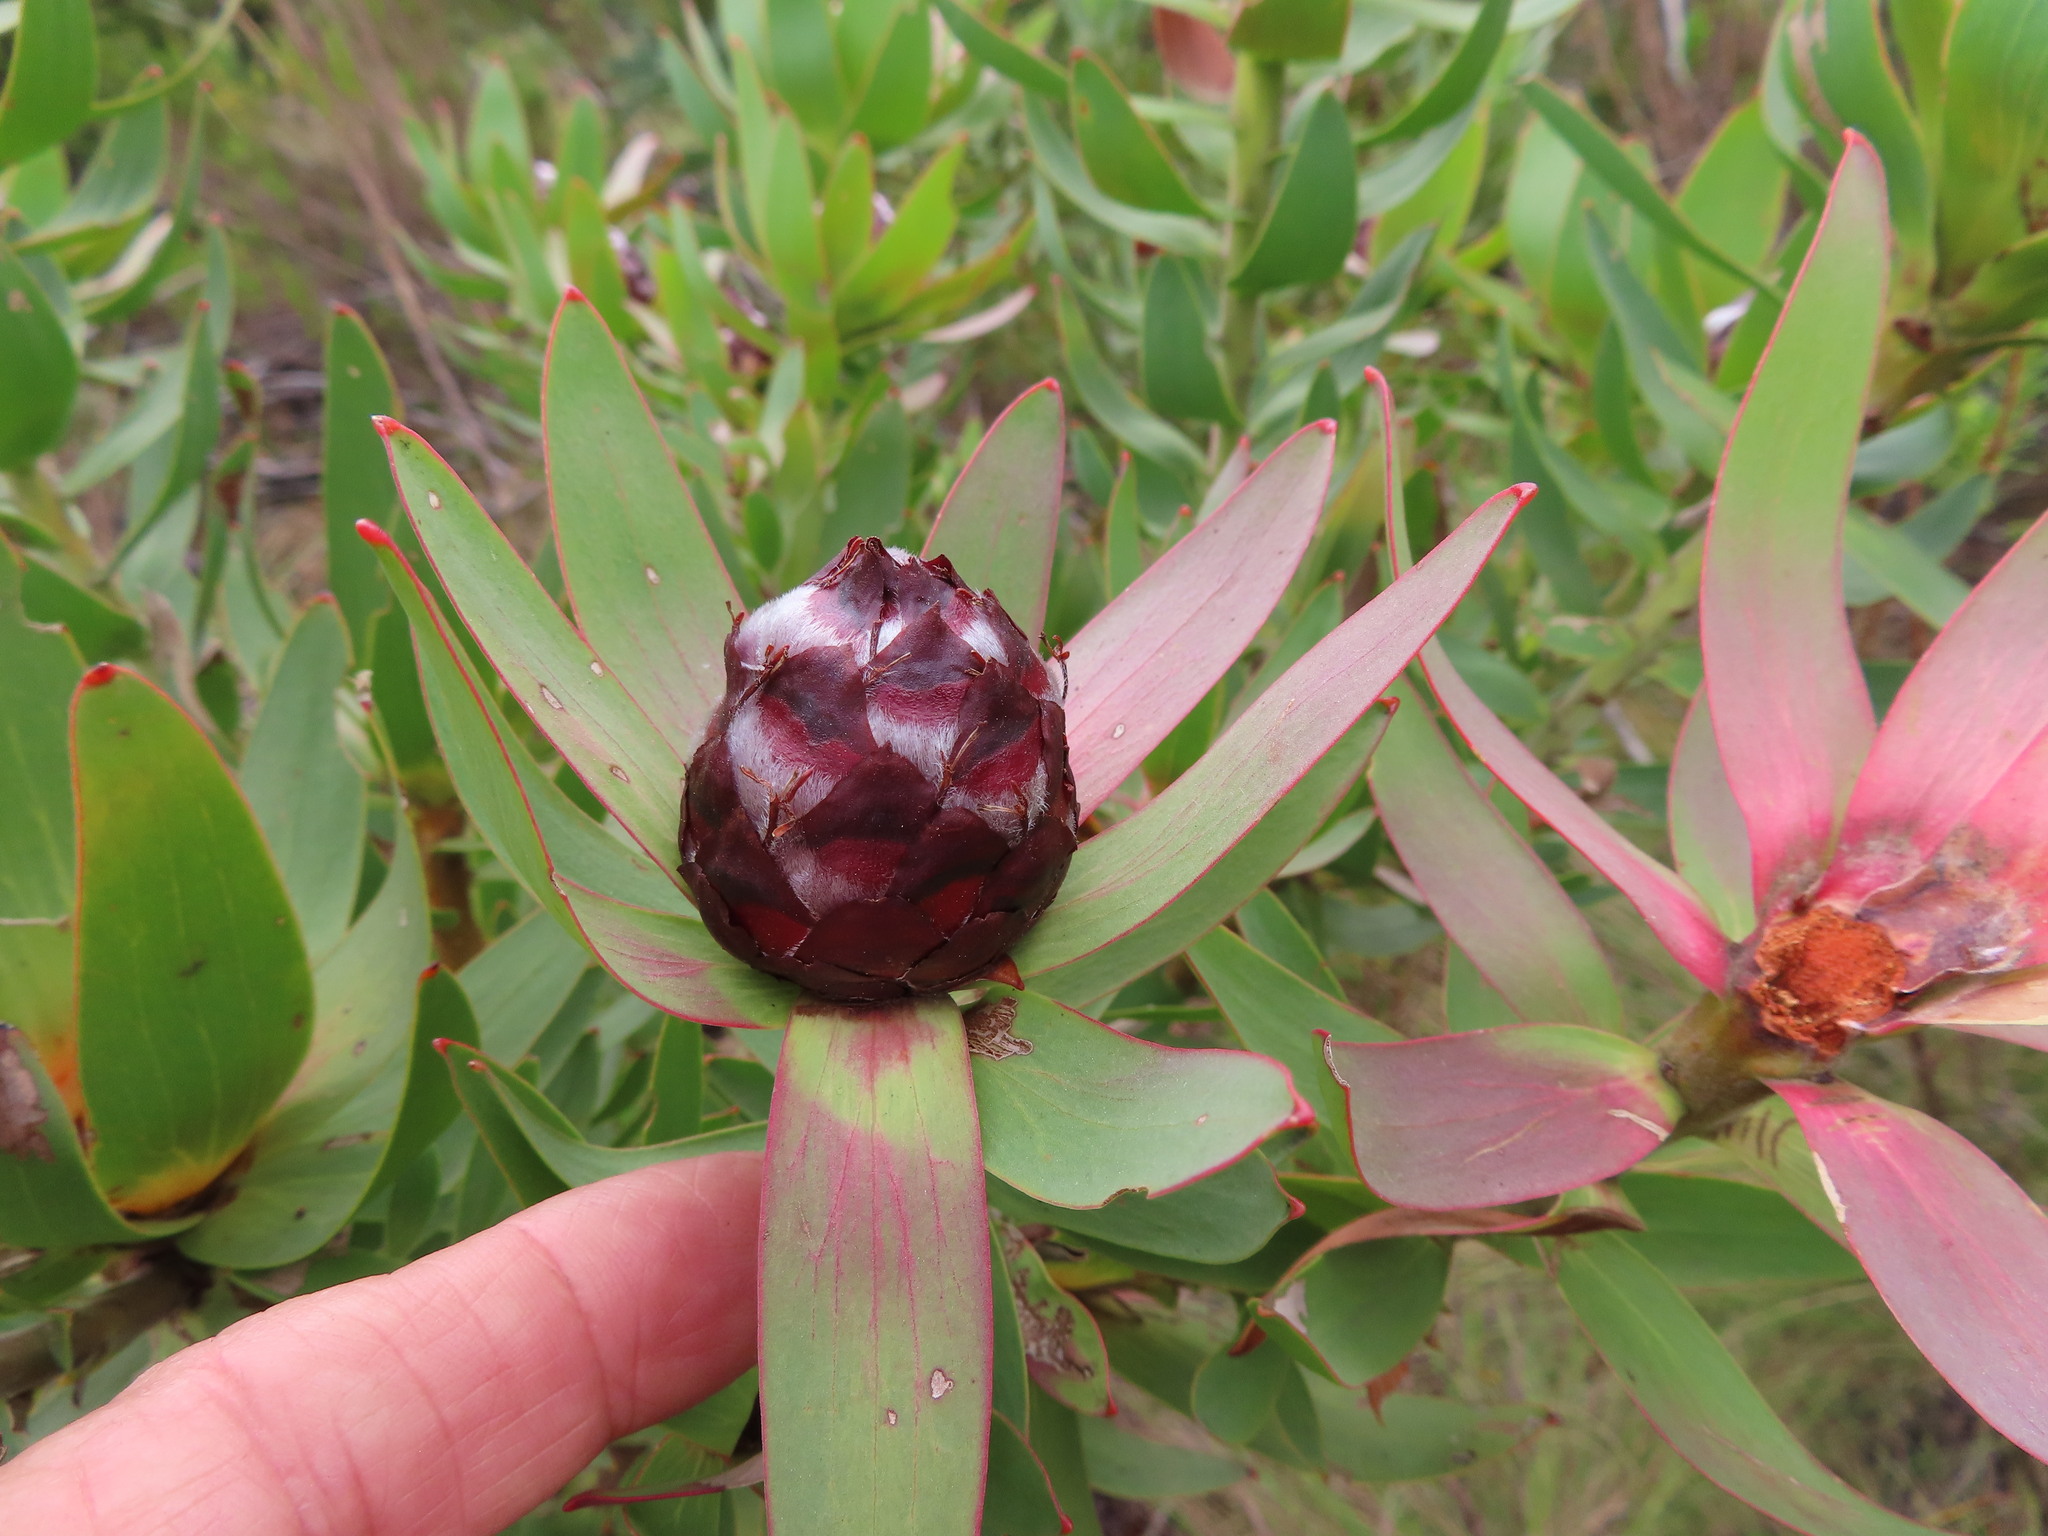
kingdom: Plantae
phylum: Tracheophyta
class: Magnoliopsida
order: Proteales
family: Proteaceae
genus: Leucadendron
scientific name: Leucadendron sessile
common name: Western sunbush
